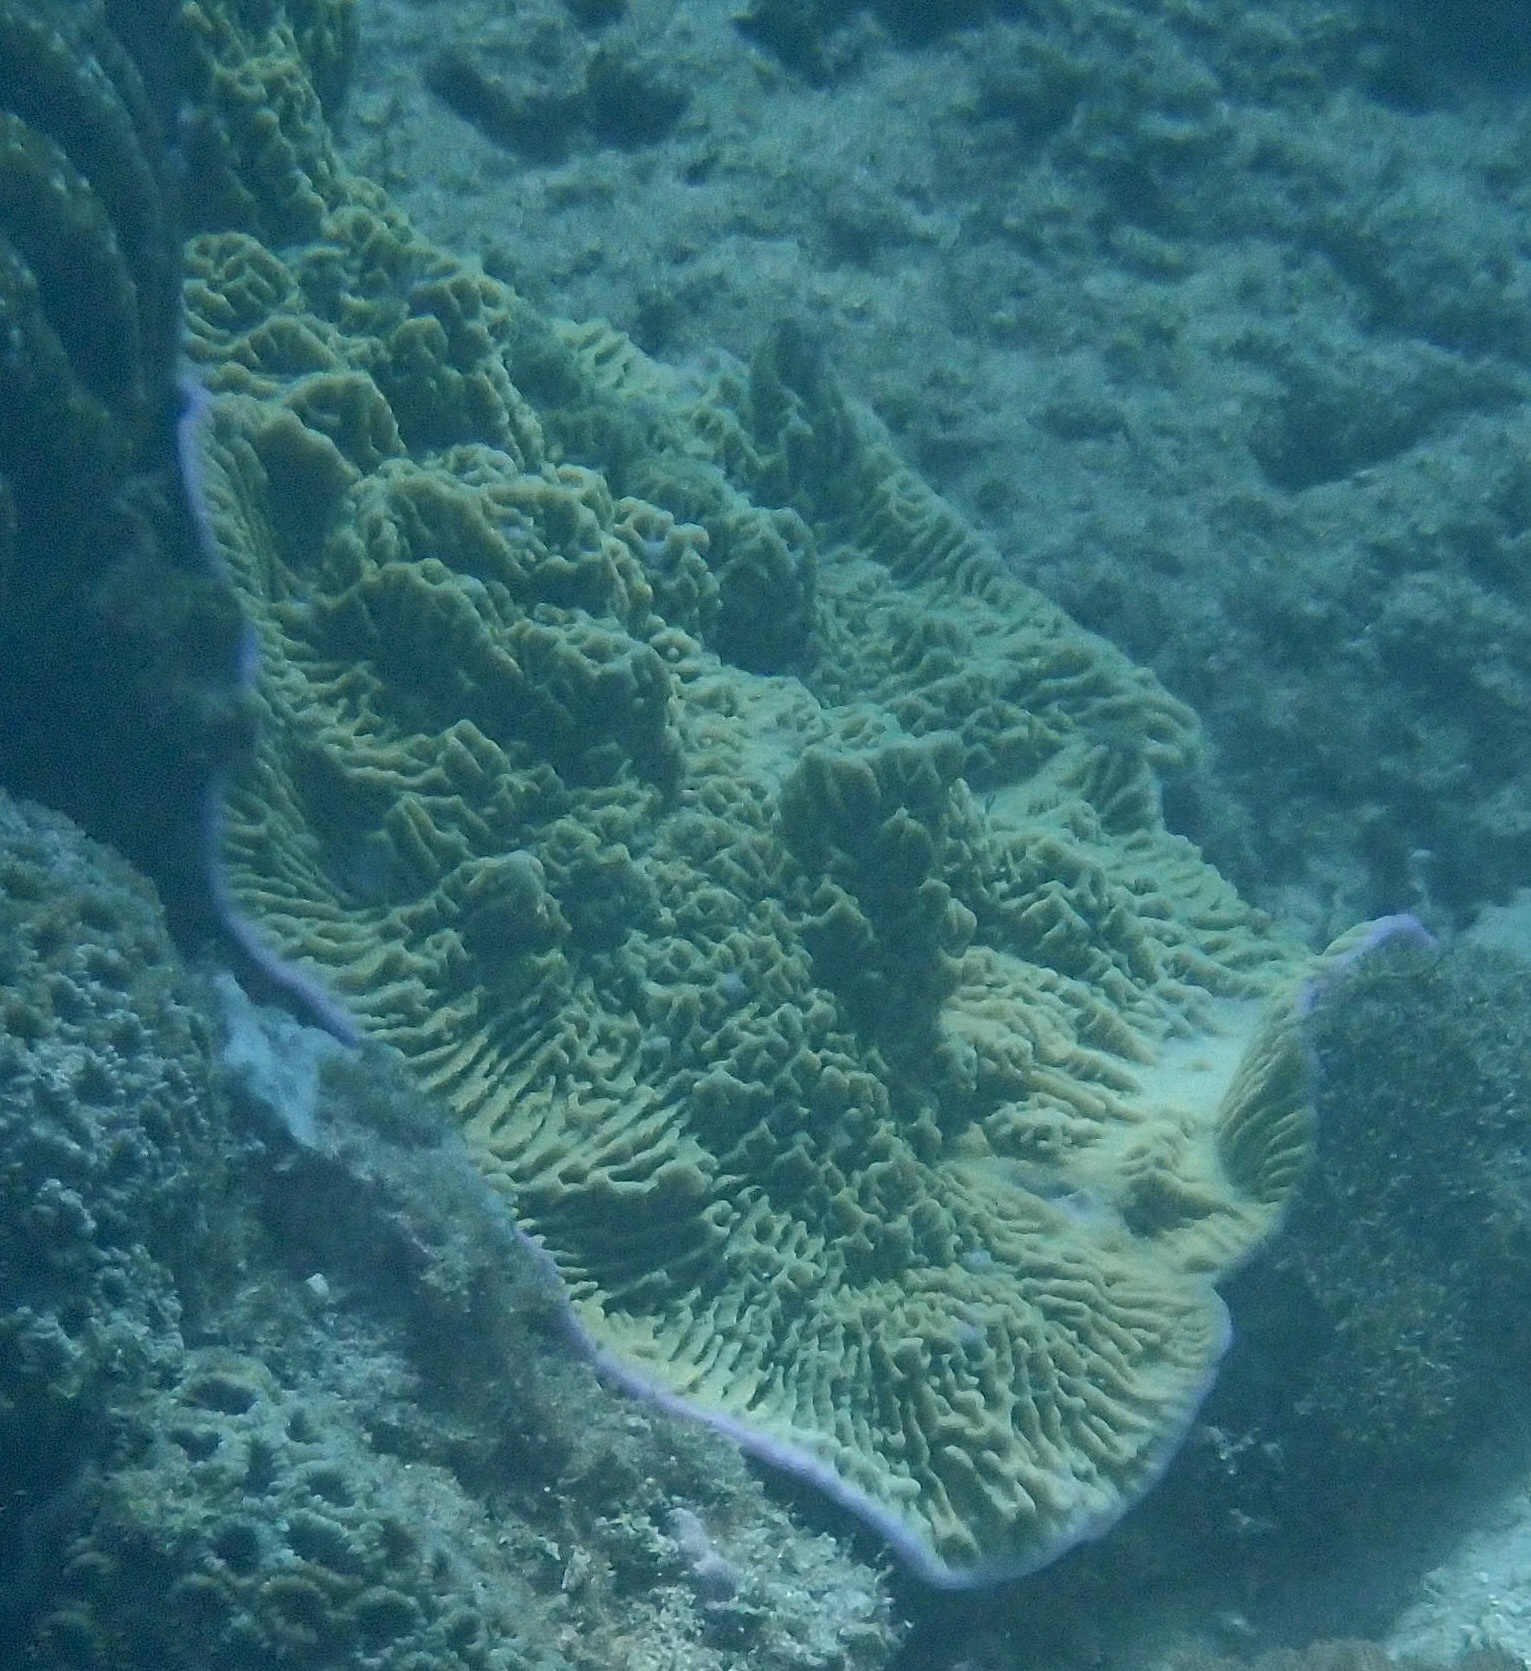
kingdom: Animalia
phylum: Cnidaria
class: Anthozoa
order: Scleractinia
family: Acroporidae
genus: Montipora
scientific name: Montipora confusa
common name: Pore coral
